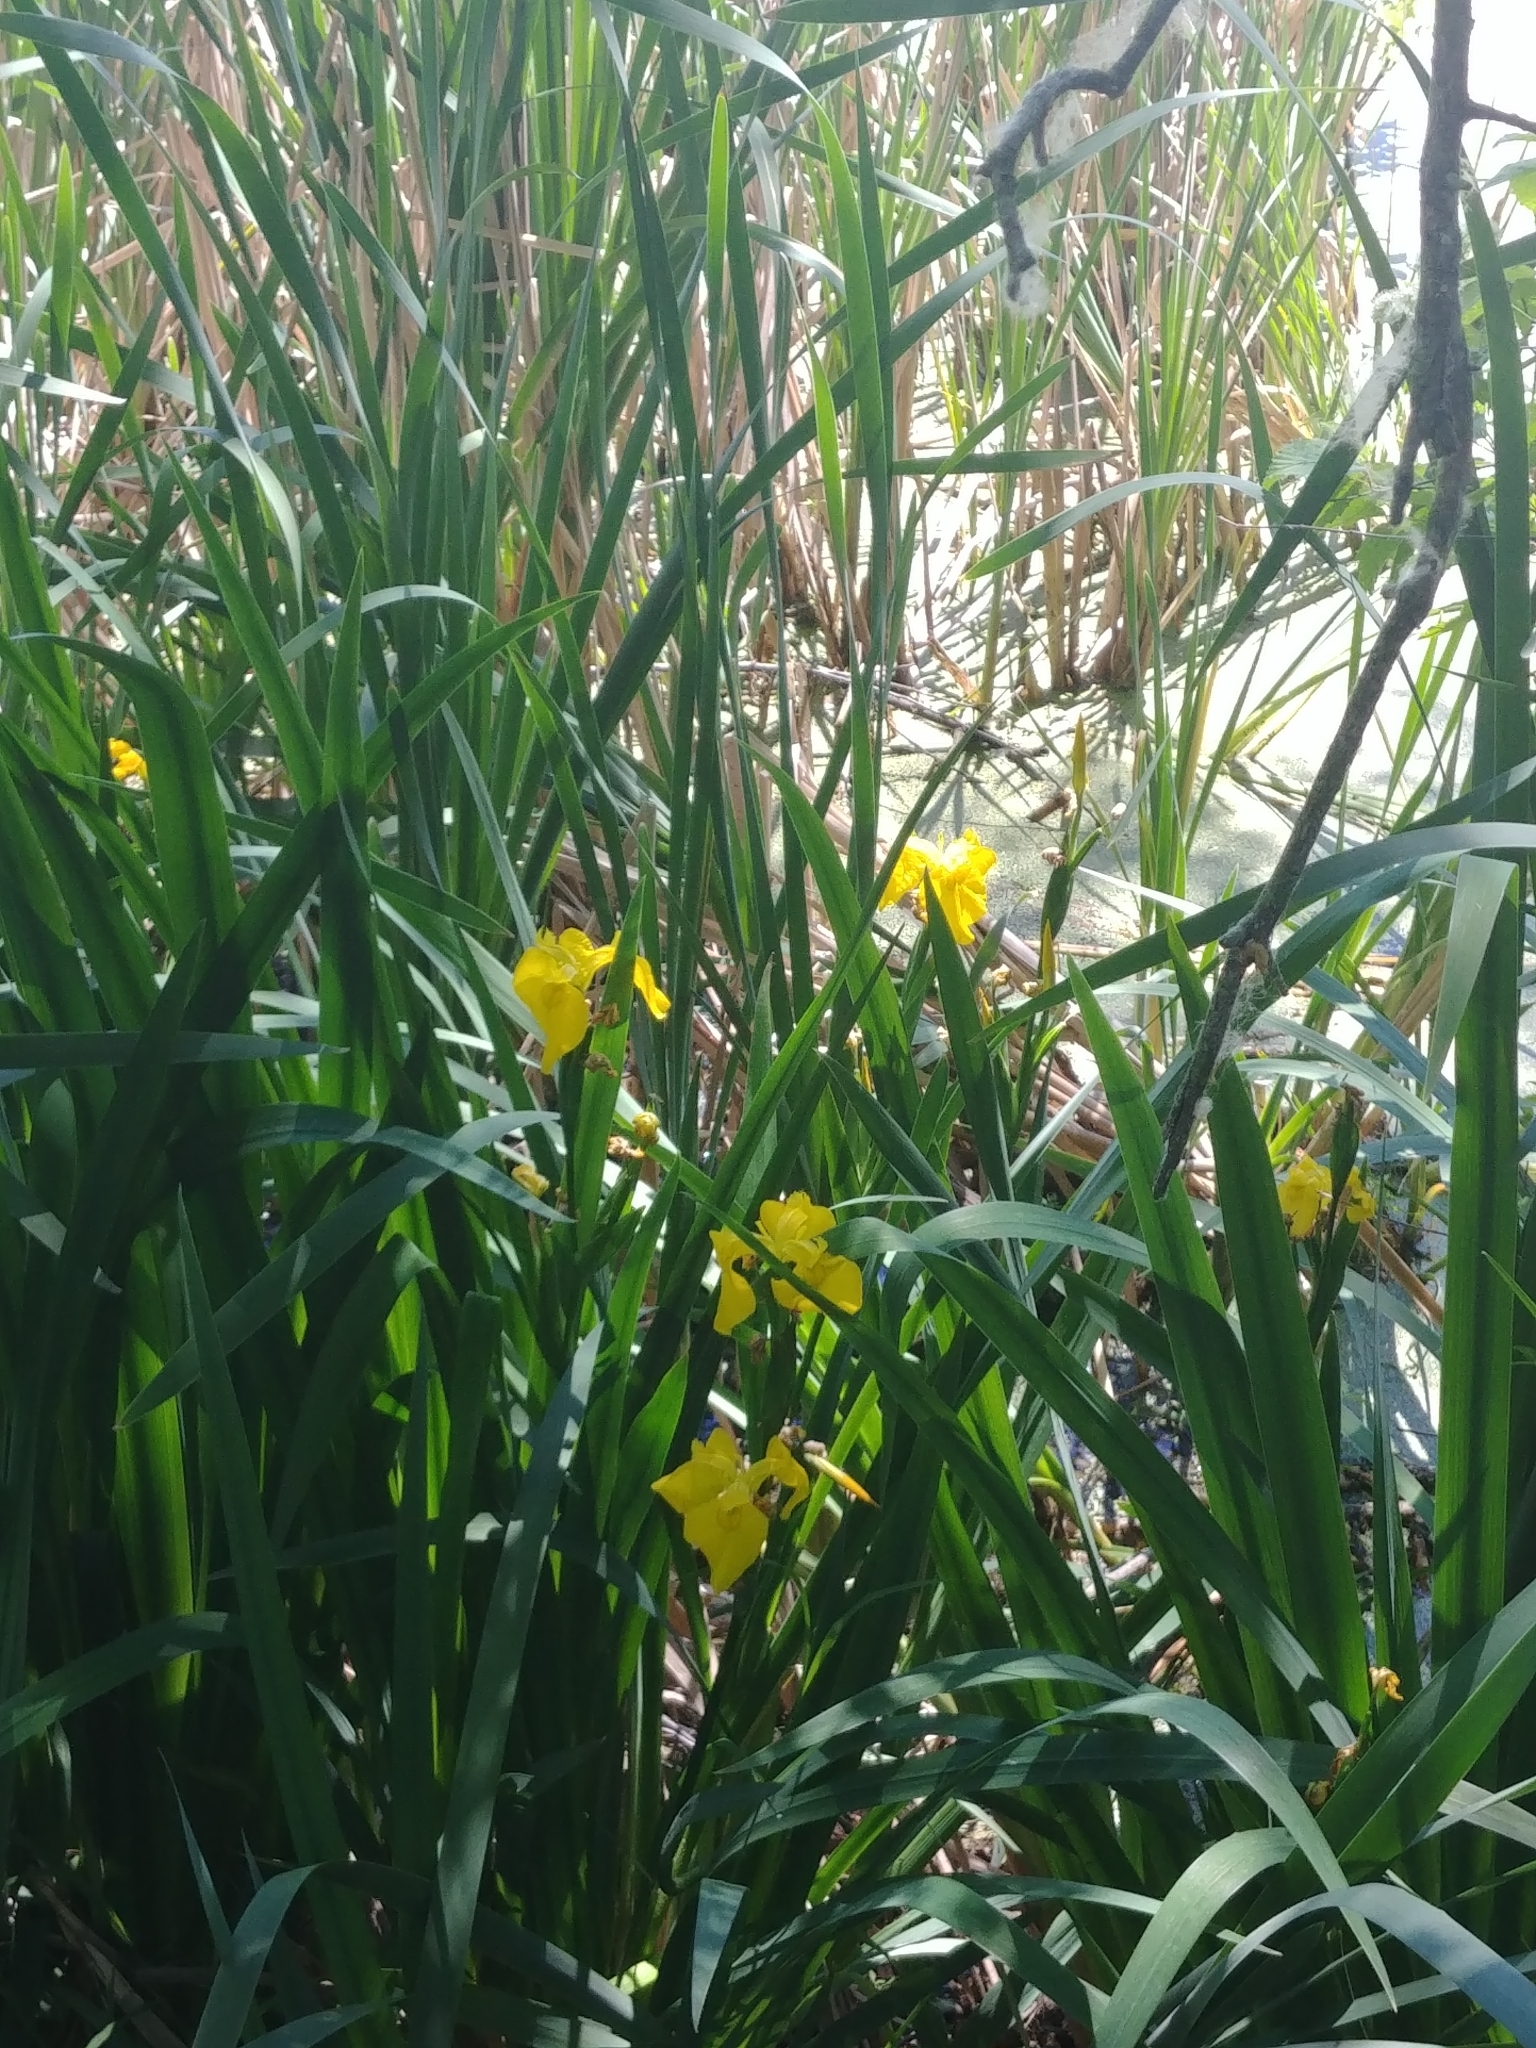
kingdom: Plantae
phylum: Tracheophyta
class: Liliopsida
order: Asparagales
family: Iridaceae
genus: Iris
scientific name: Iris pseudacorus
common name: Yellow flag
